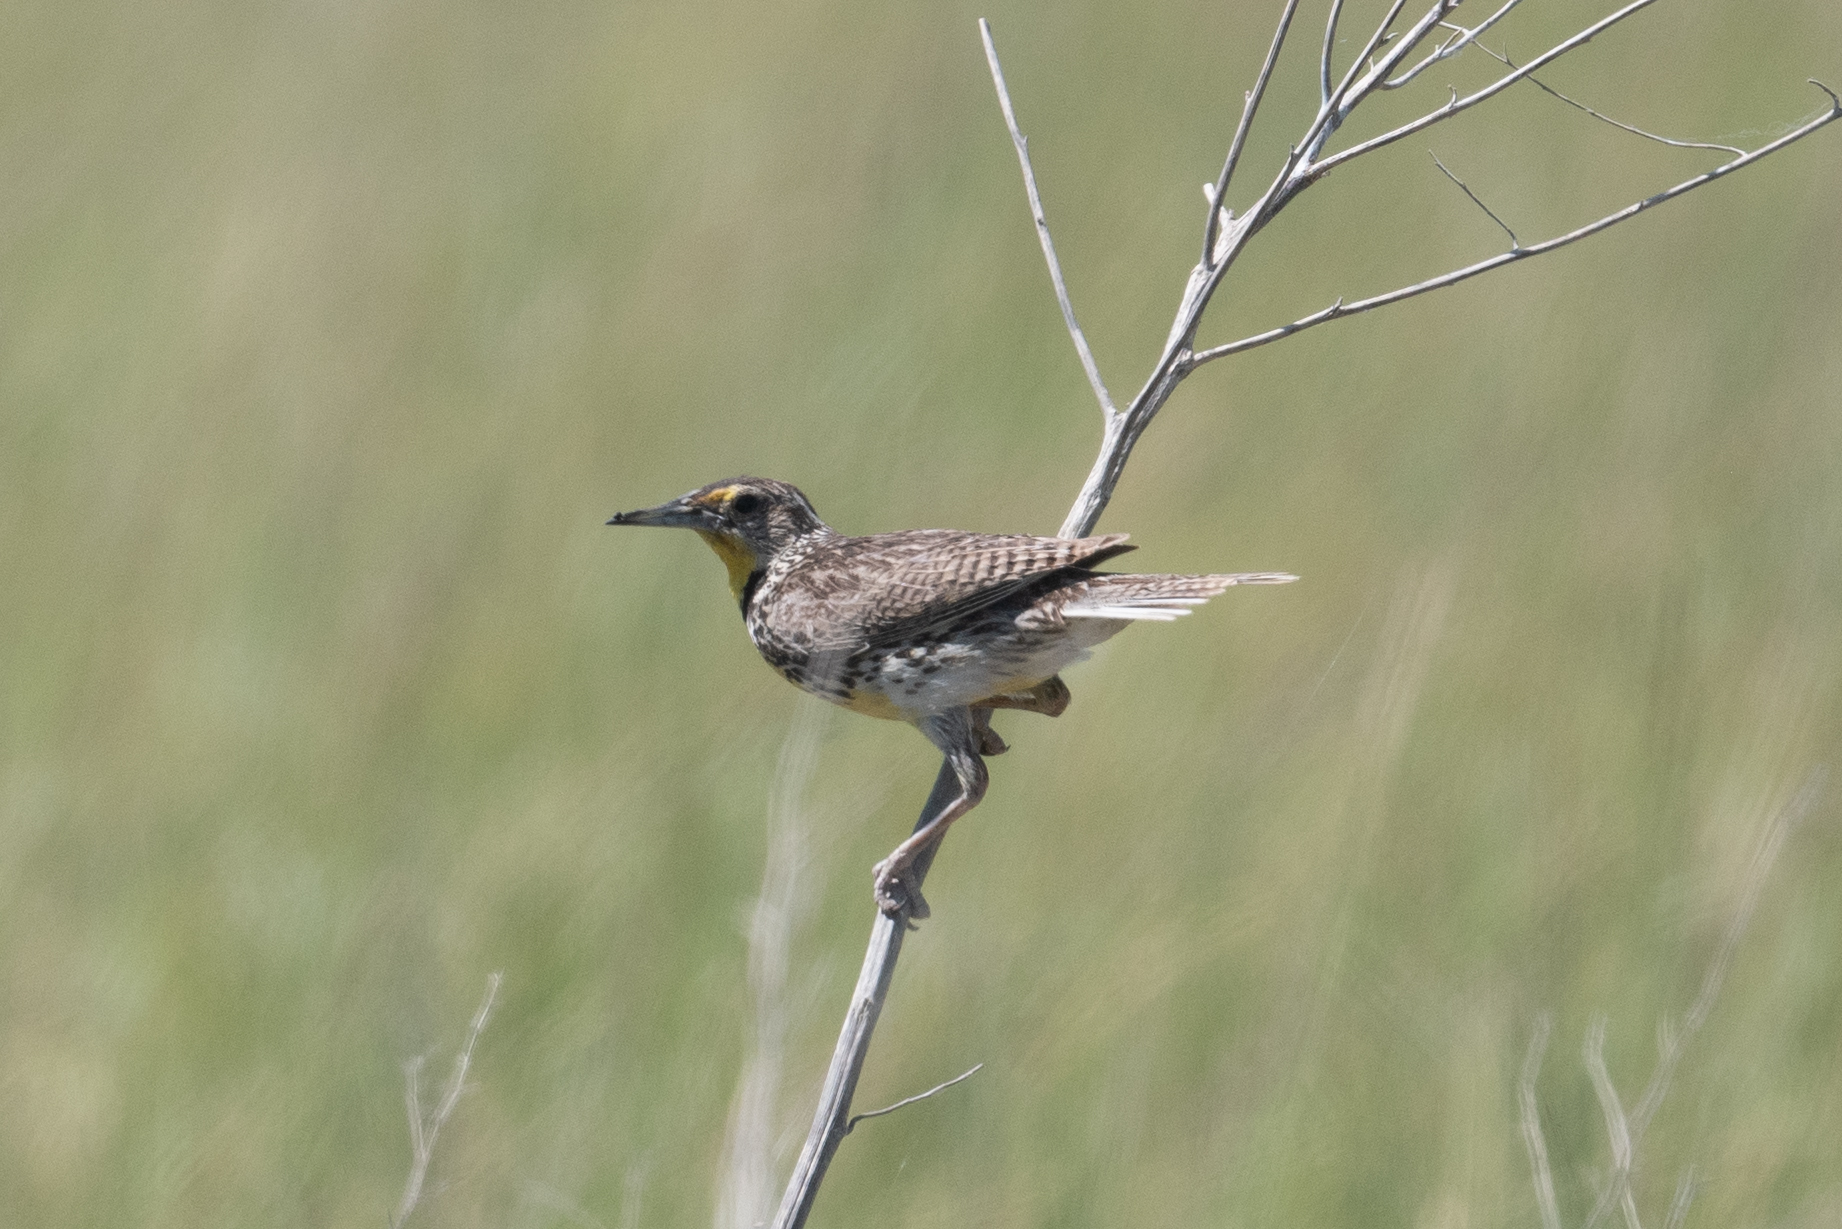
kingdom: Animalia
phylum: Chordata
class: Aves
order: Passeriformes
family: Icteridae
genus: Sturnella
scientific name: Sturnella neglecta
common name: Western meadowlark
